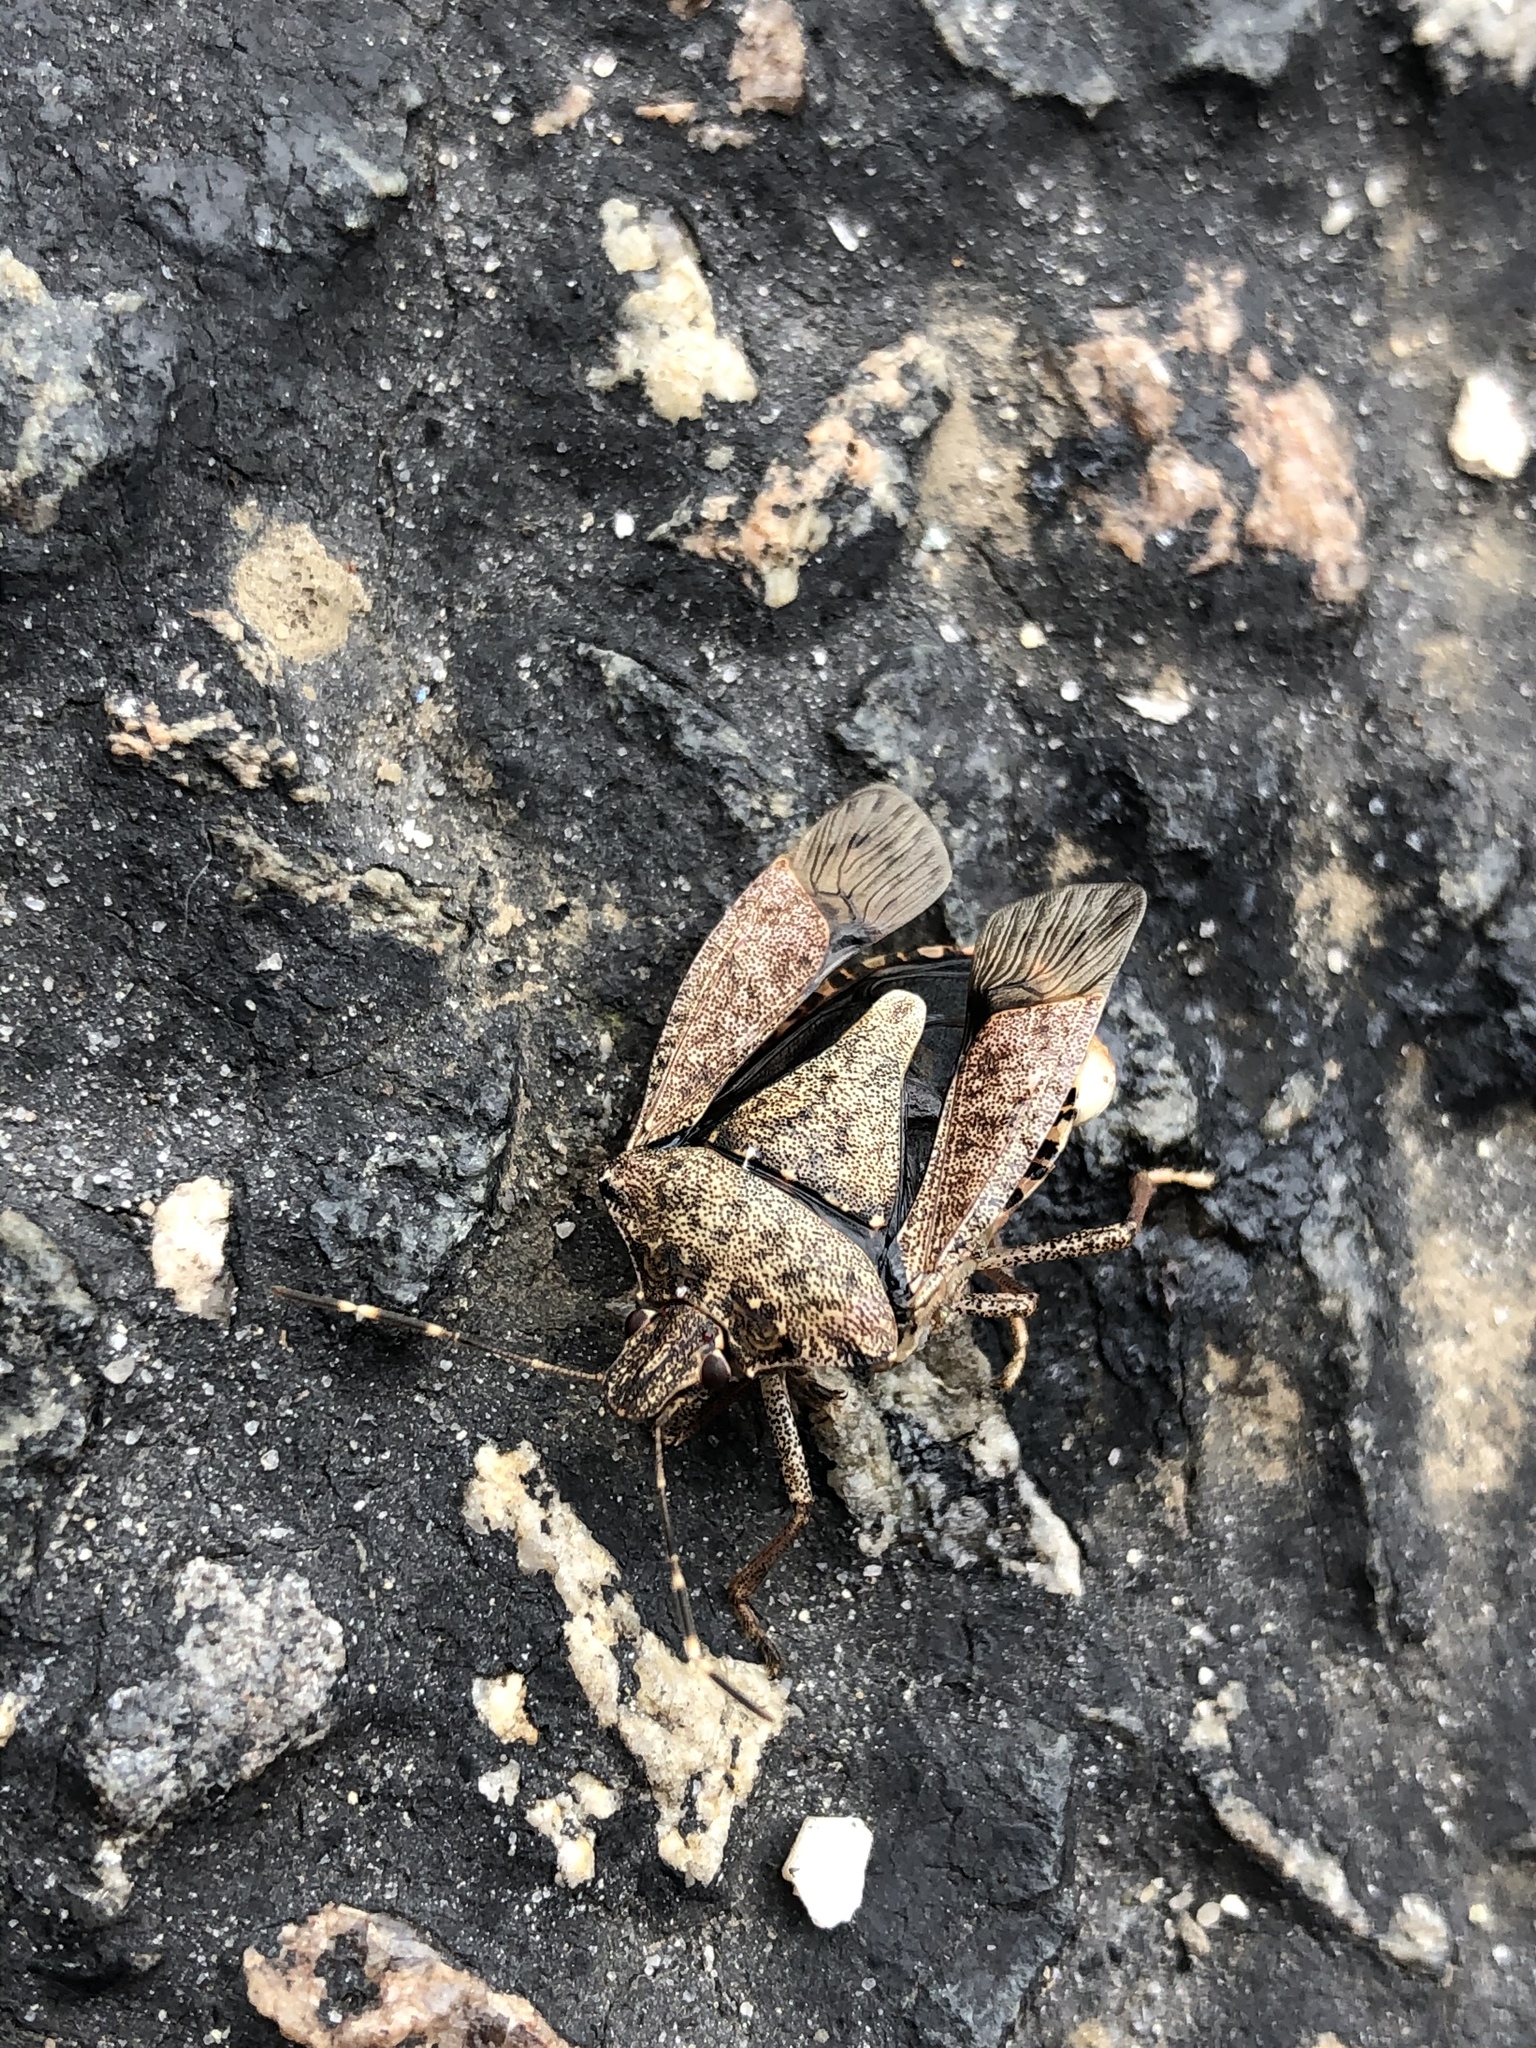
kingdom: Animalia
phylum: Arthropoda
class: Insecta
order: Hemiptera
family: Pentatomidae
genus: Halyomorpha
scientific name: Halyomorpha halys
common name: Brown marmorated stink bug
